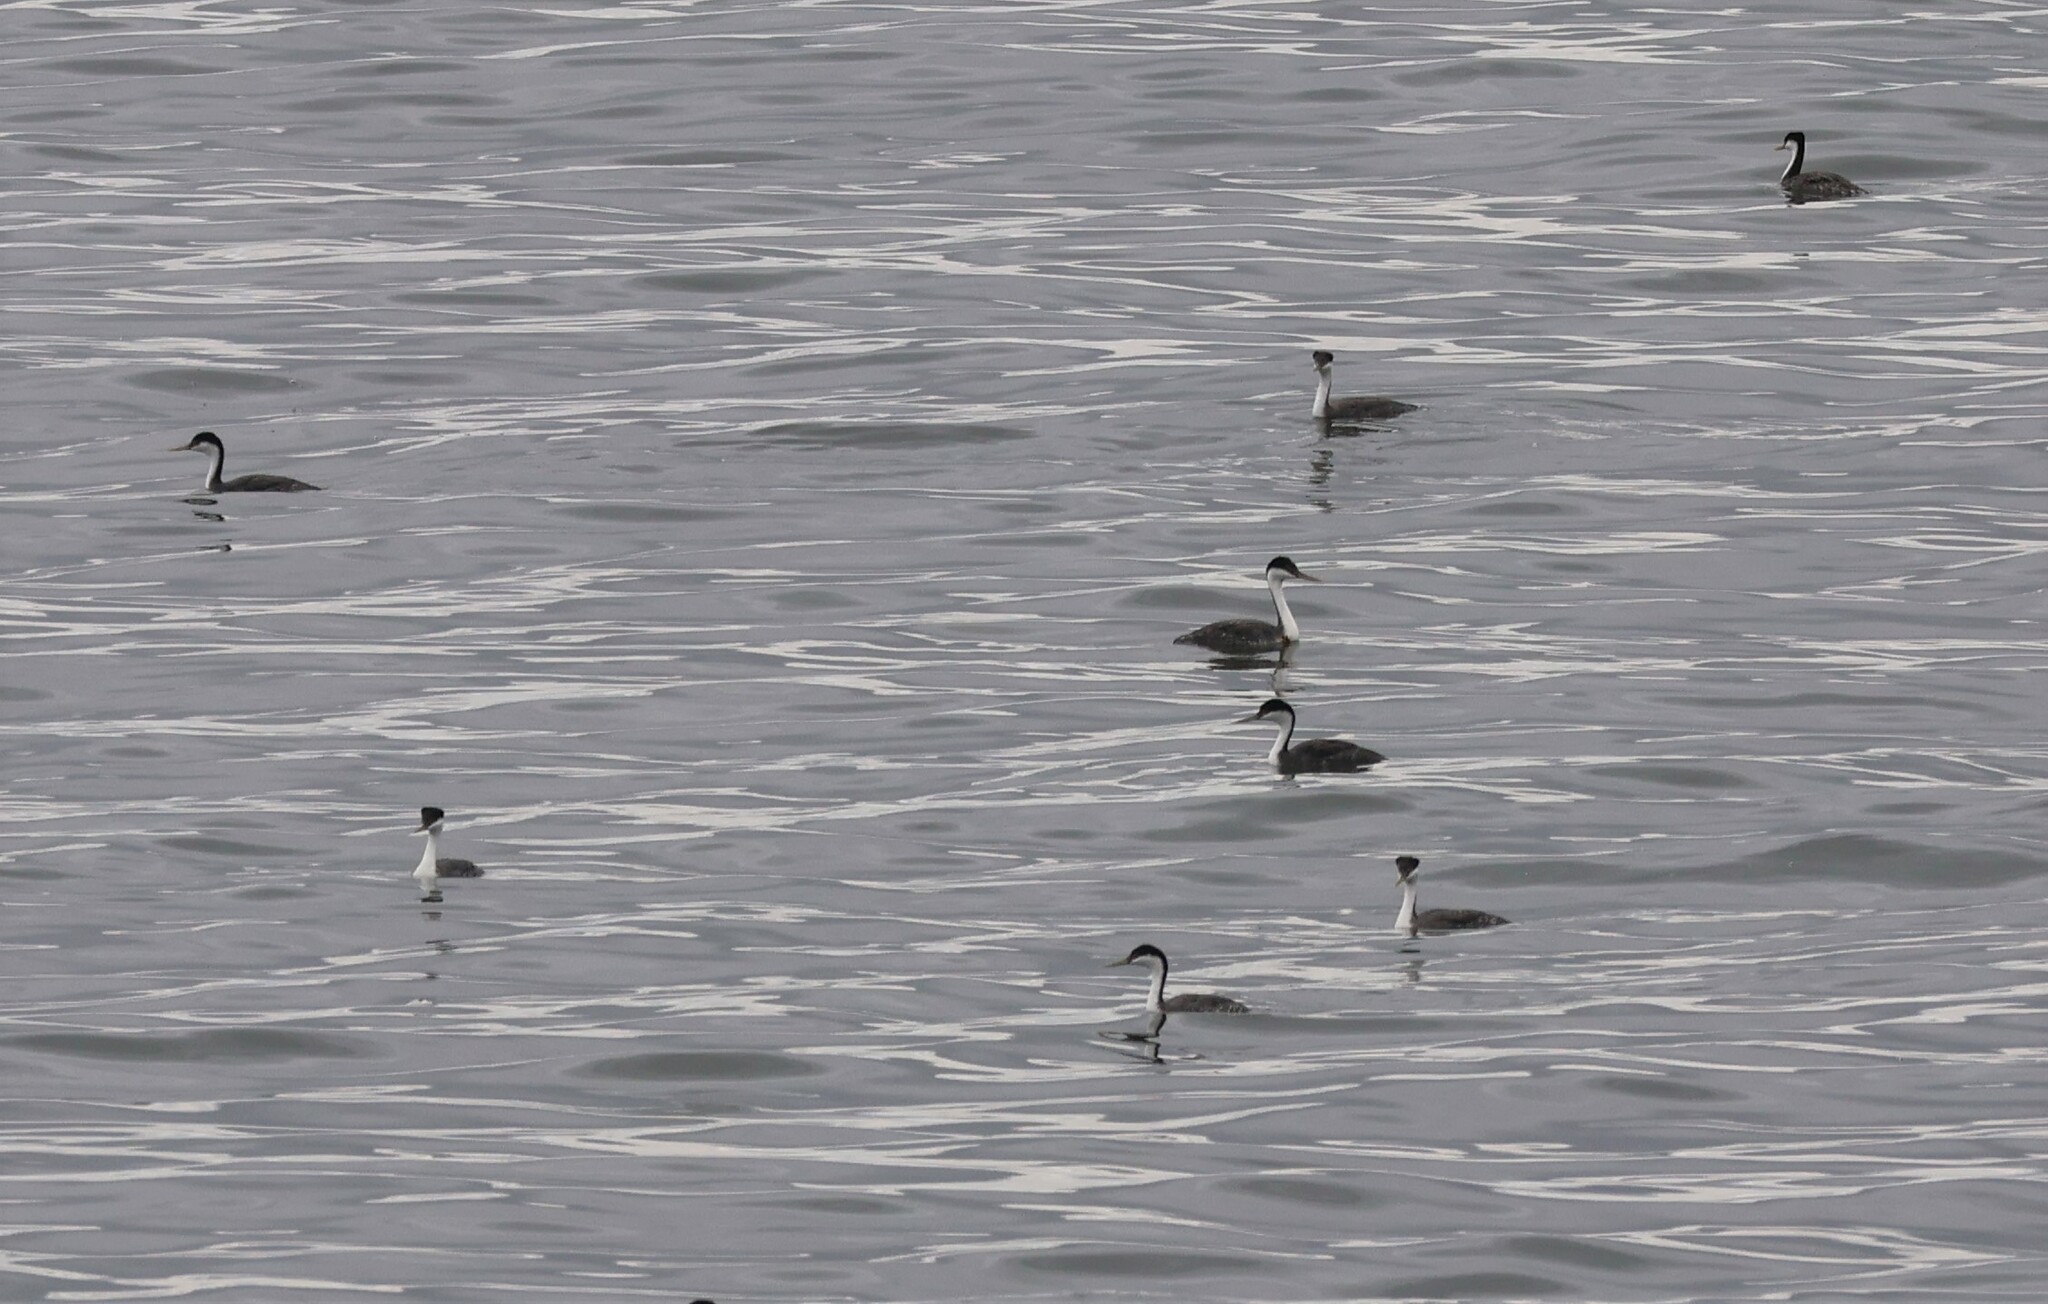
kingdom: Animalia
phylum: Chordata
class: Aves
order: Podicipediformes
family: Podicipedidae
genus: Aechmophorus
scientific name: Aechmophorus occidentalis
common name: Western grebe
